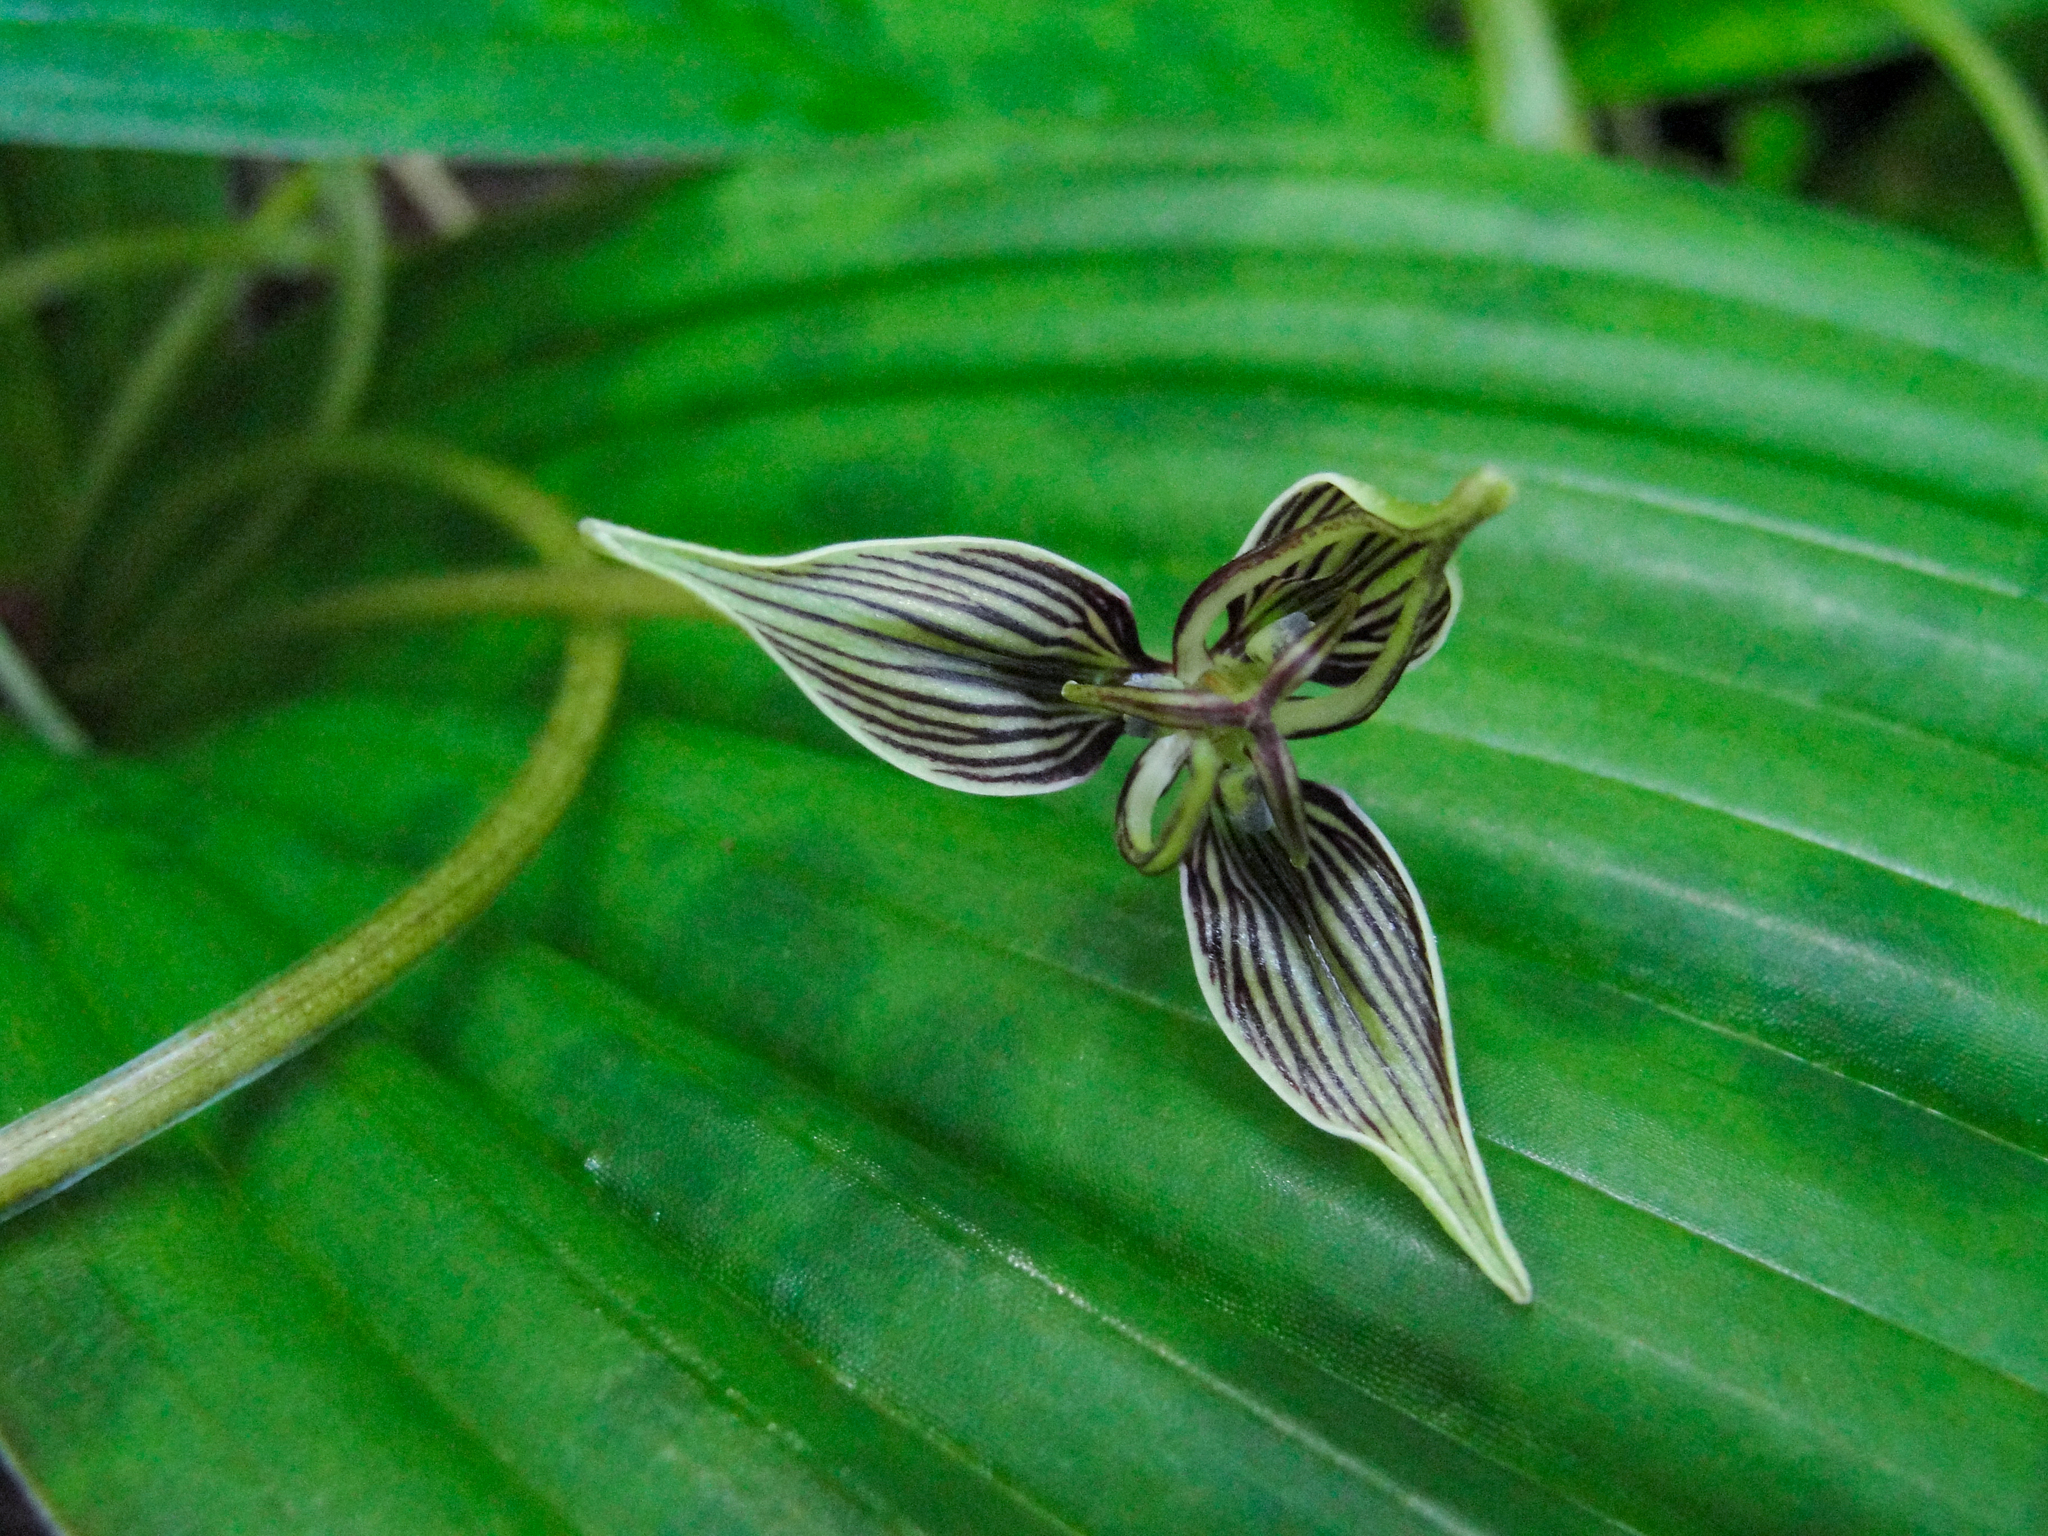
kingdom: Plantae
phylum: Tracheophyta
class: Liliopsida
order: Liliales
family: Liliaceae
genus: Scoliopus
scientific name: Scoliopus bigelovii
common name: Foetid adder's-tongue
